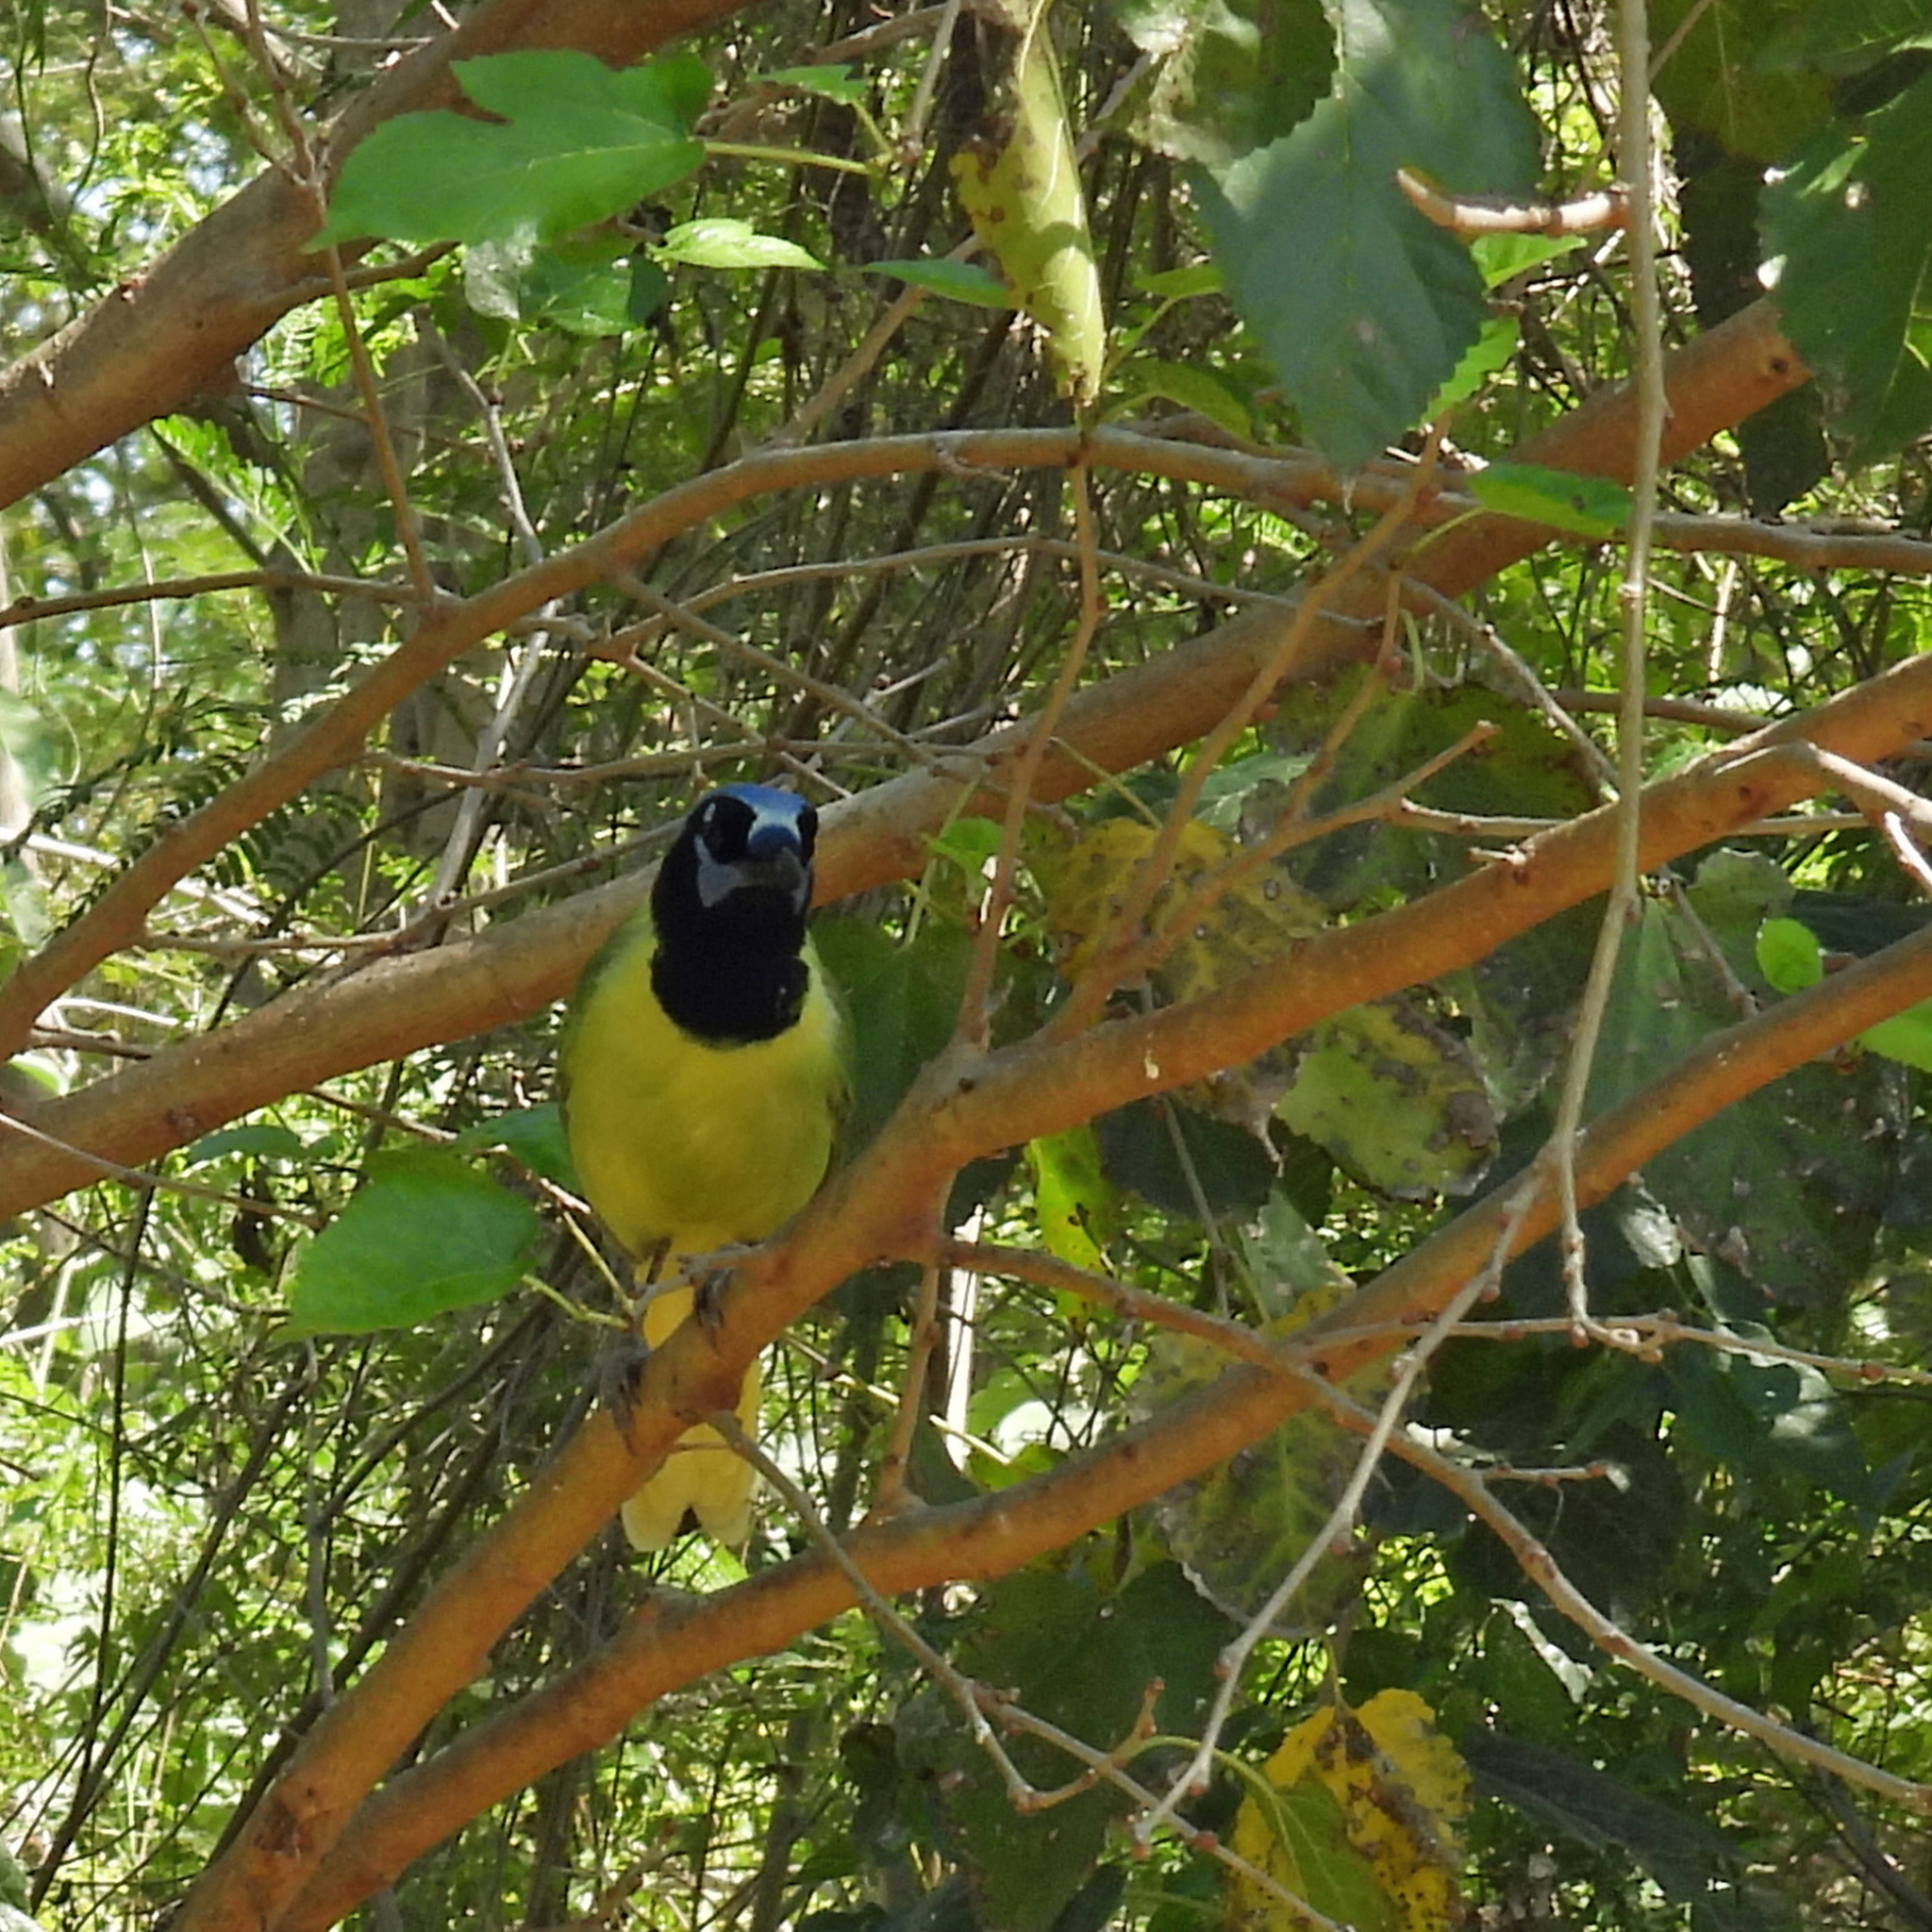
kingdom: Animalia
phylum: Chordata
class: Aves
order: Passeriformes
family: Corvidae
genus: Cyanocorax
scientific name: Cyanocorax yncas
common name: Green jay
